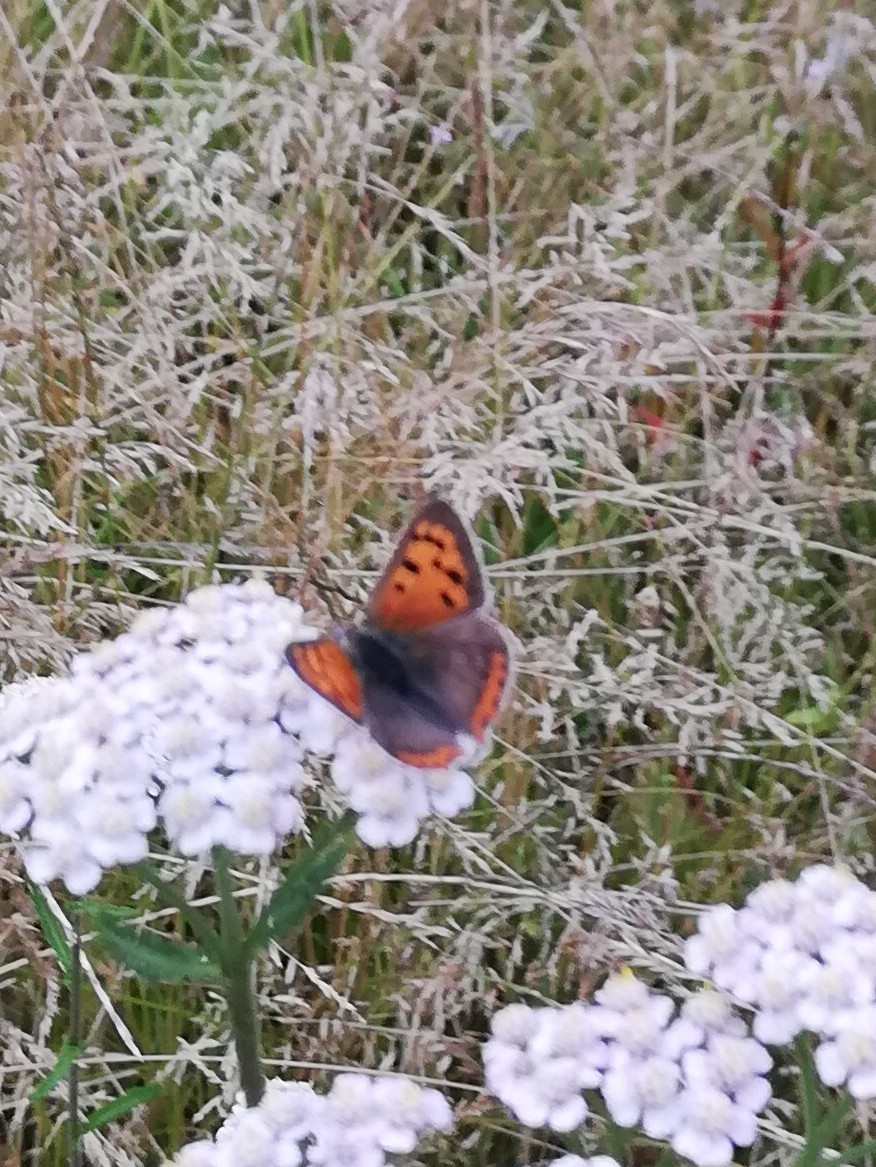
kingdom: Animalia
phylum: Arthropoda
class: Insecta
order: Lepidoptera
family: Lycaenidae
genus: Lycaena
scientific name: Lycaena phlaeas
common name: Small copper
